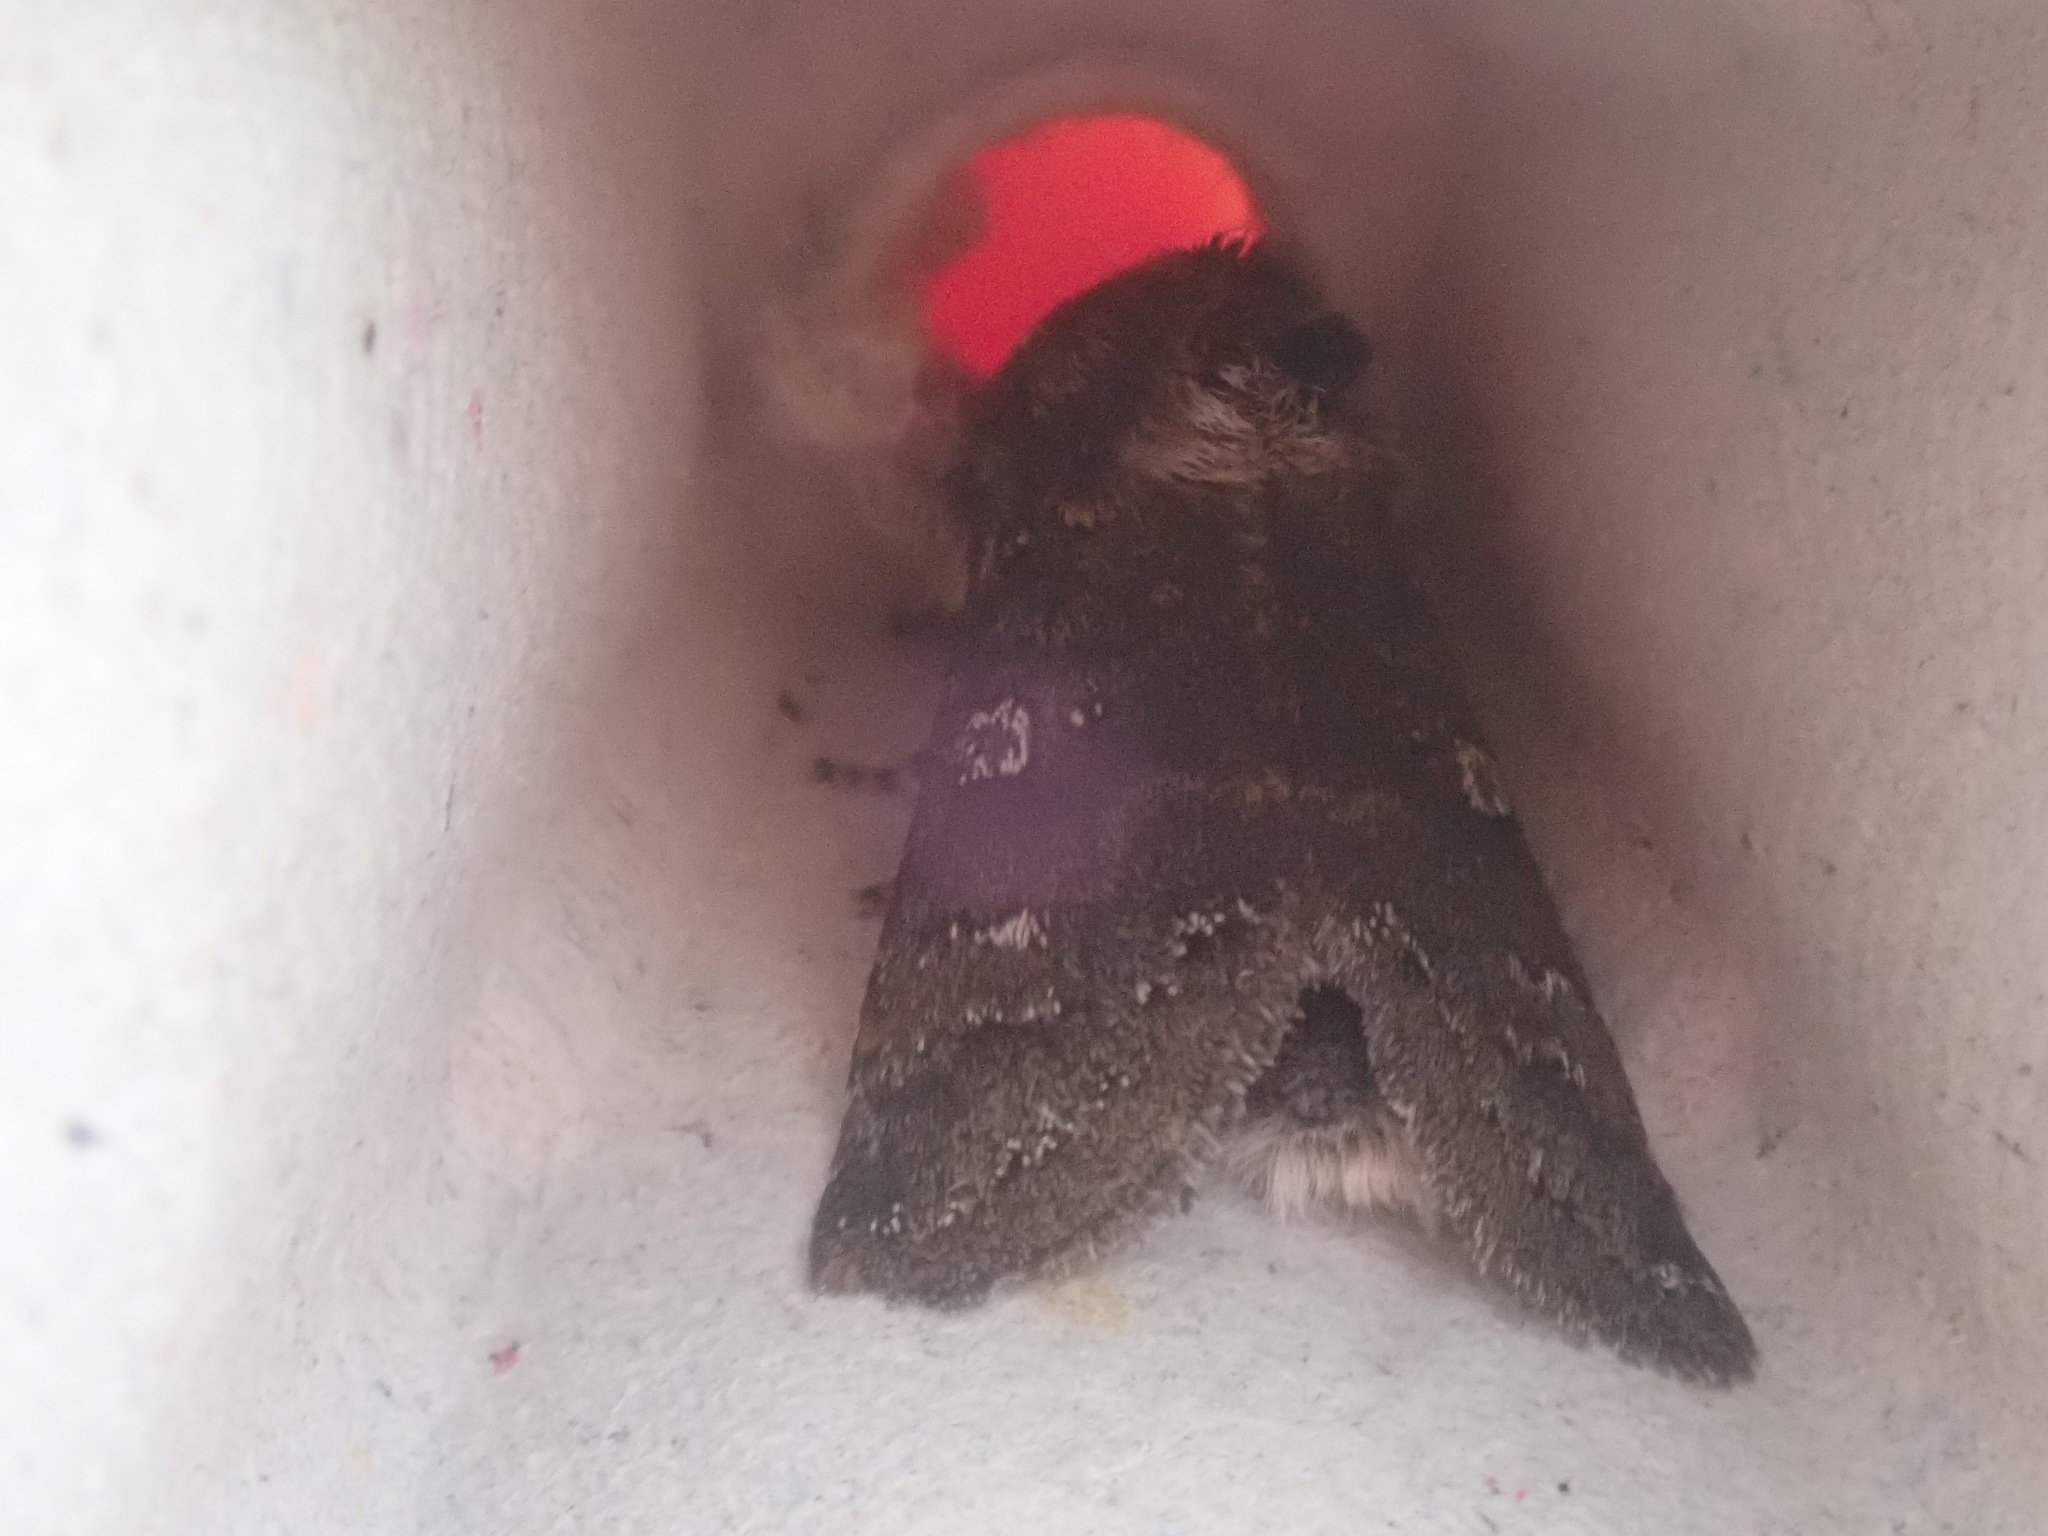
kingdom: Animalia
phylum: Arthropoda
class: Insecta
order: Lepidoptera
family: Noctuidae
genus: Psaphida
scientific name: Psaphida rolandi
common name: Roland's sallow
